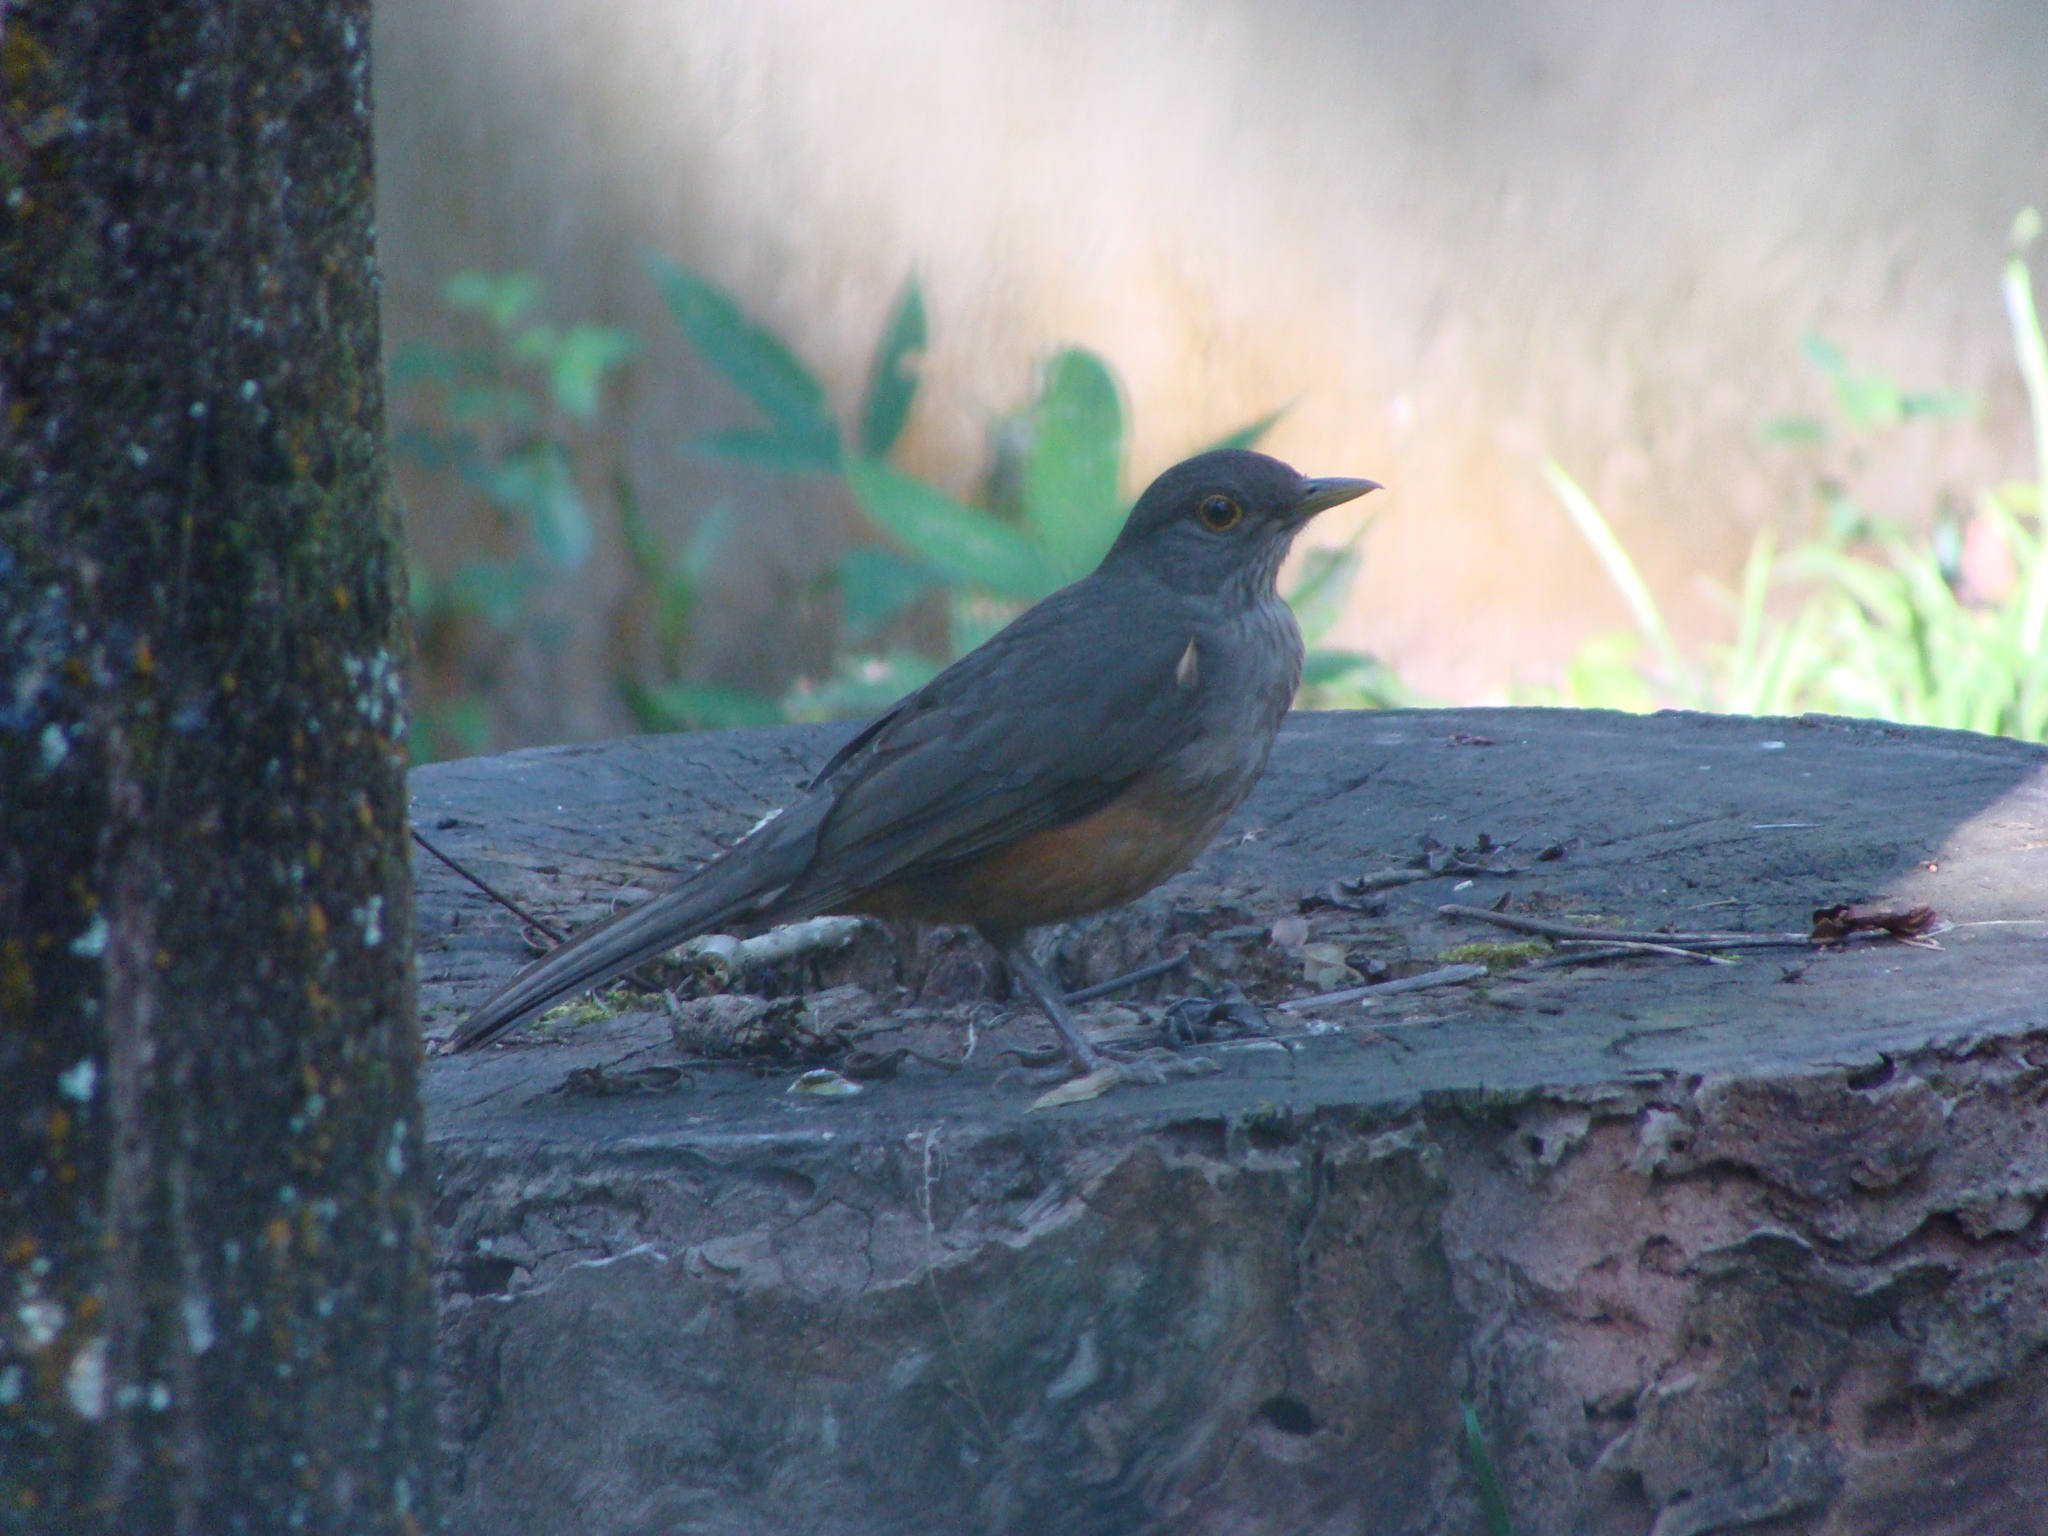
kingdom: Animalia
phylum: Chordata
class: Aves
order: Passeriformes
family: Turdidae
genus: Turdus
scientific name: Turdus rufiventris
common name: Rufous-bellied thrush
